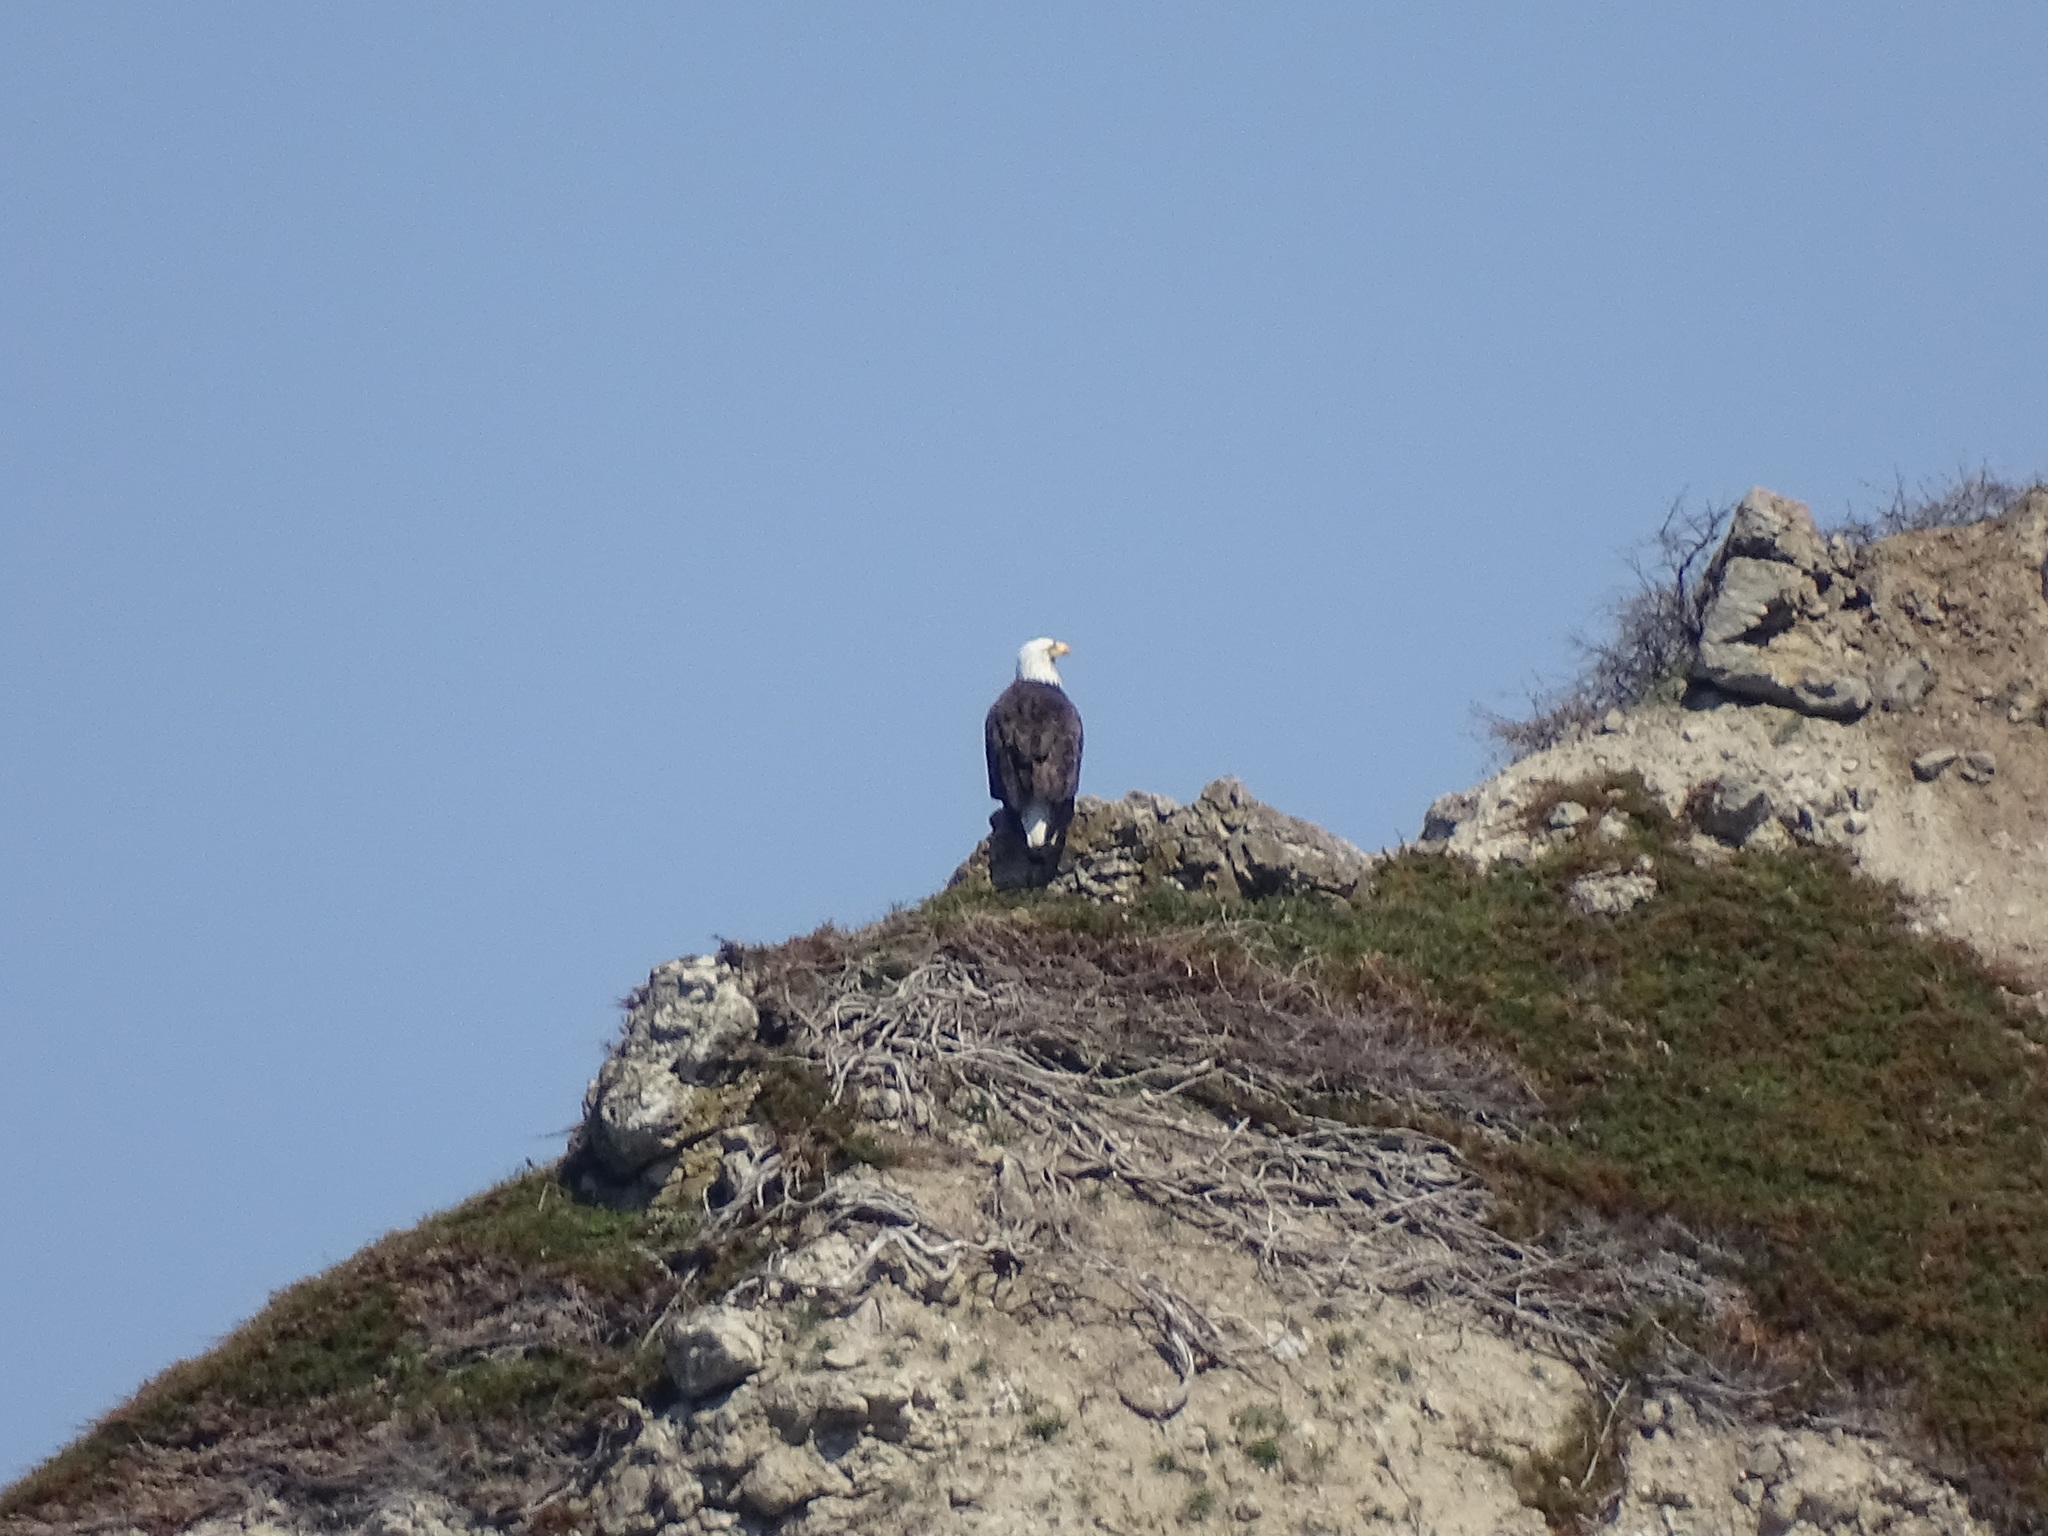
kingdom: Animalia
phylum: Chordata
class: Aves
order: Accipitriformes
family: Accipitridae
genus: Haliaeetus
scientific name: Haliaeetus leucocephalus
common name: Bald eagle
